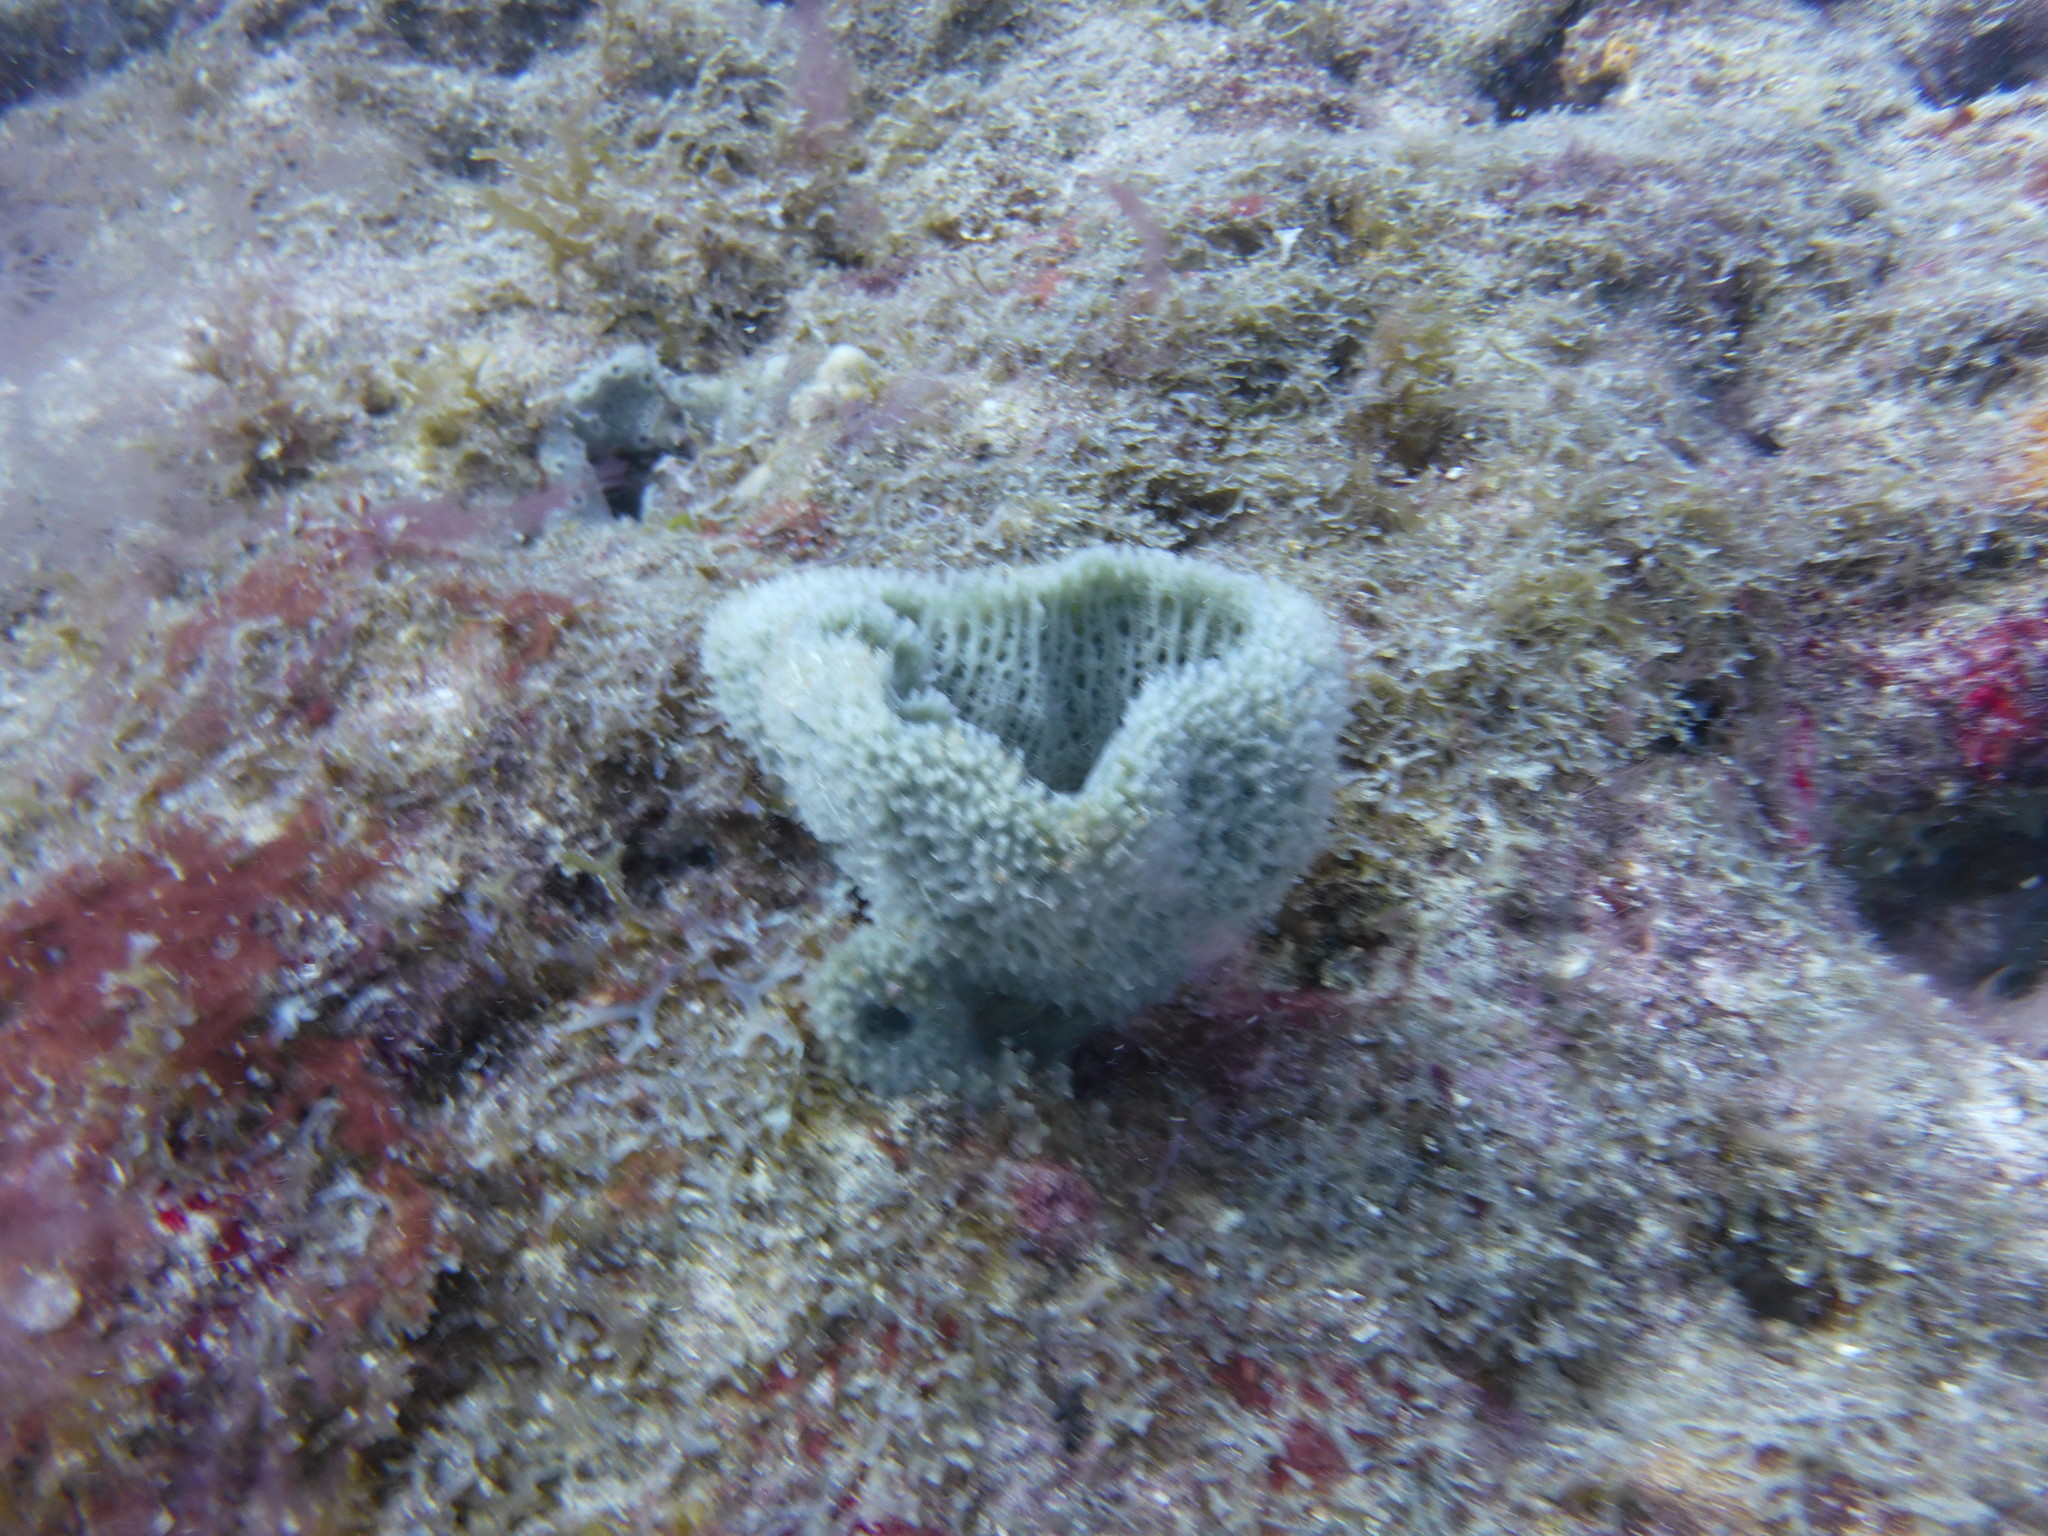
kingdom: Animalia
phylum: Porifera
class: Demospongiae
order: Haplosclerida
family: Niphatidae
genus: Niphates
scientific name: Niphates digitalis
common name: Pink vase sponge
